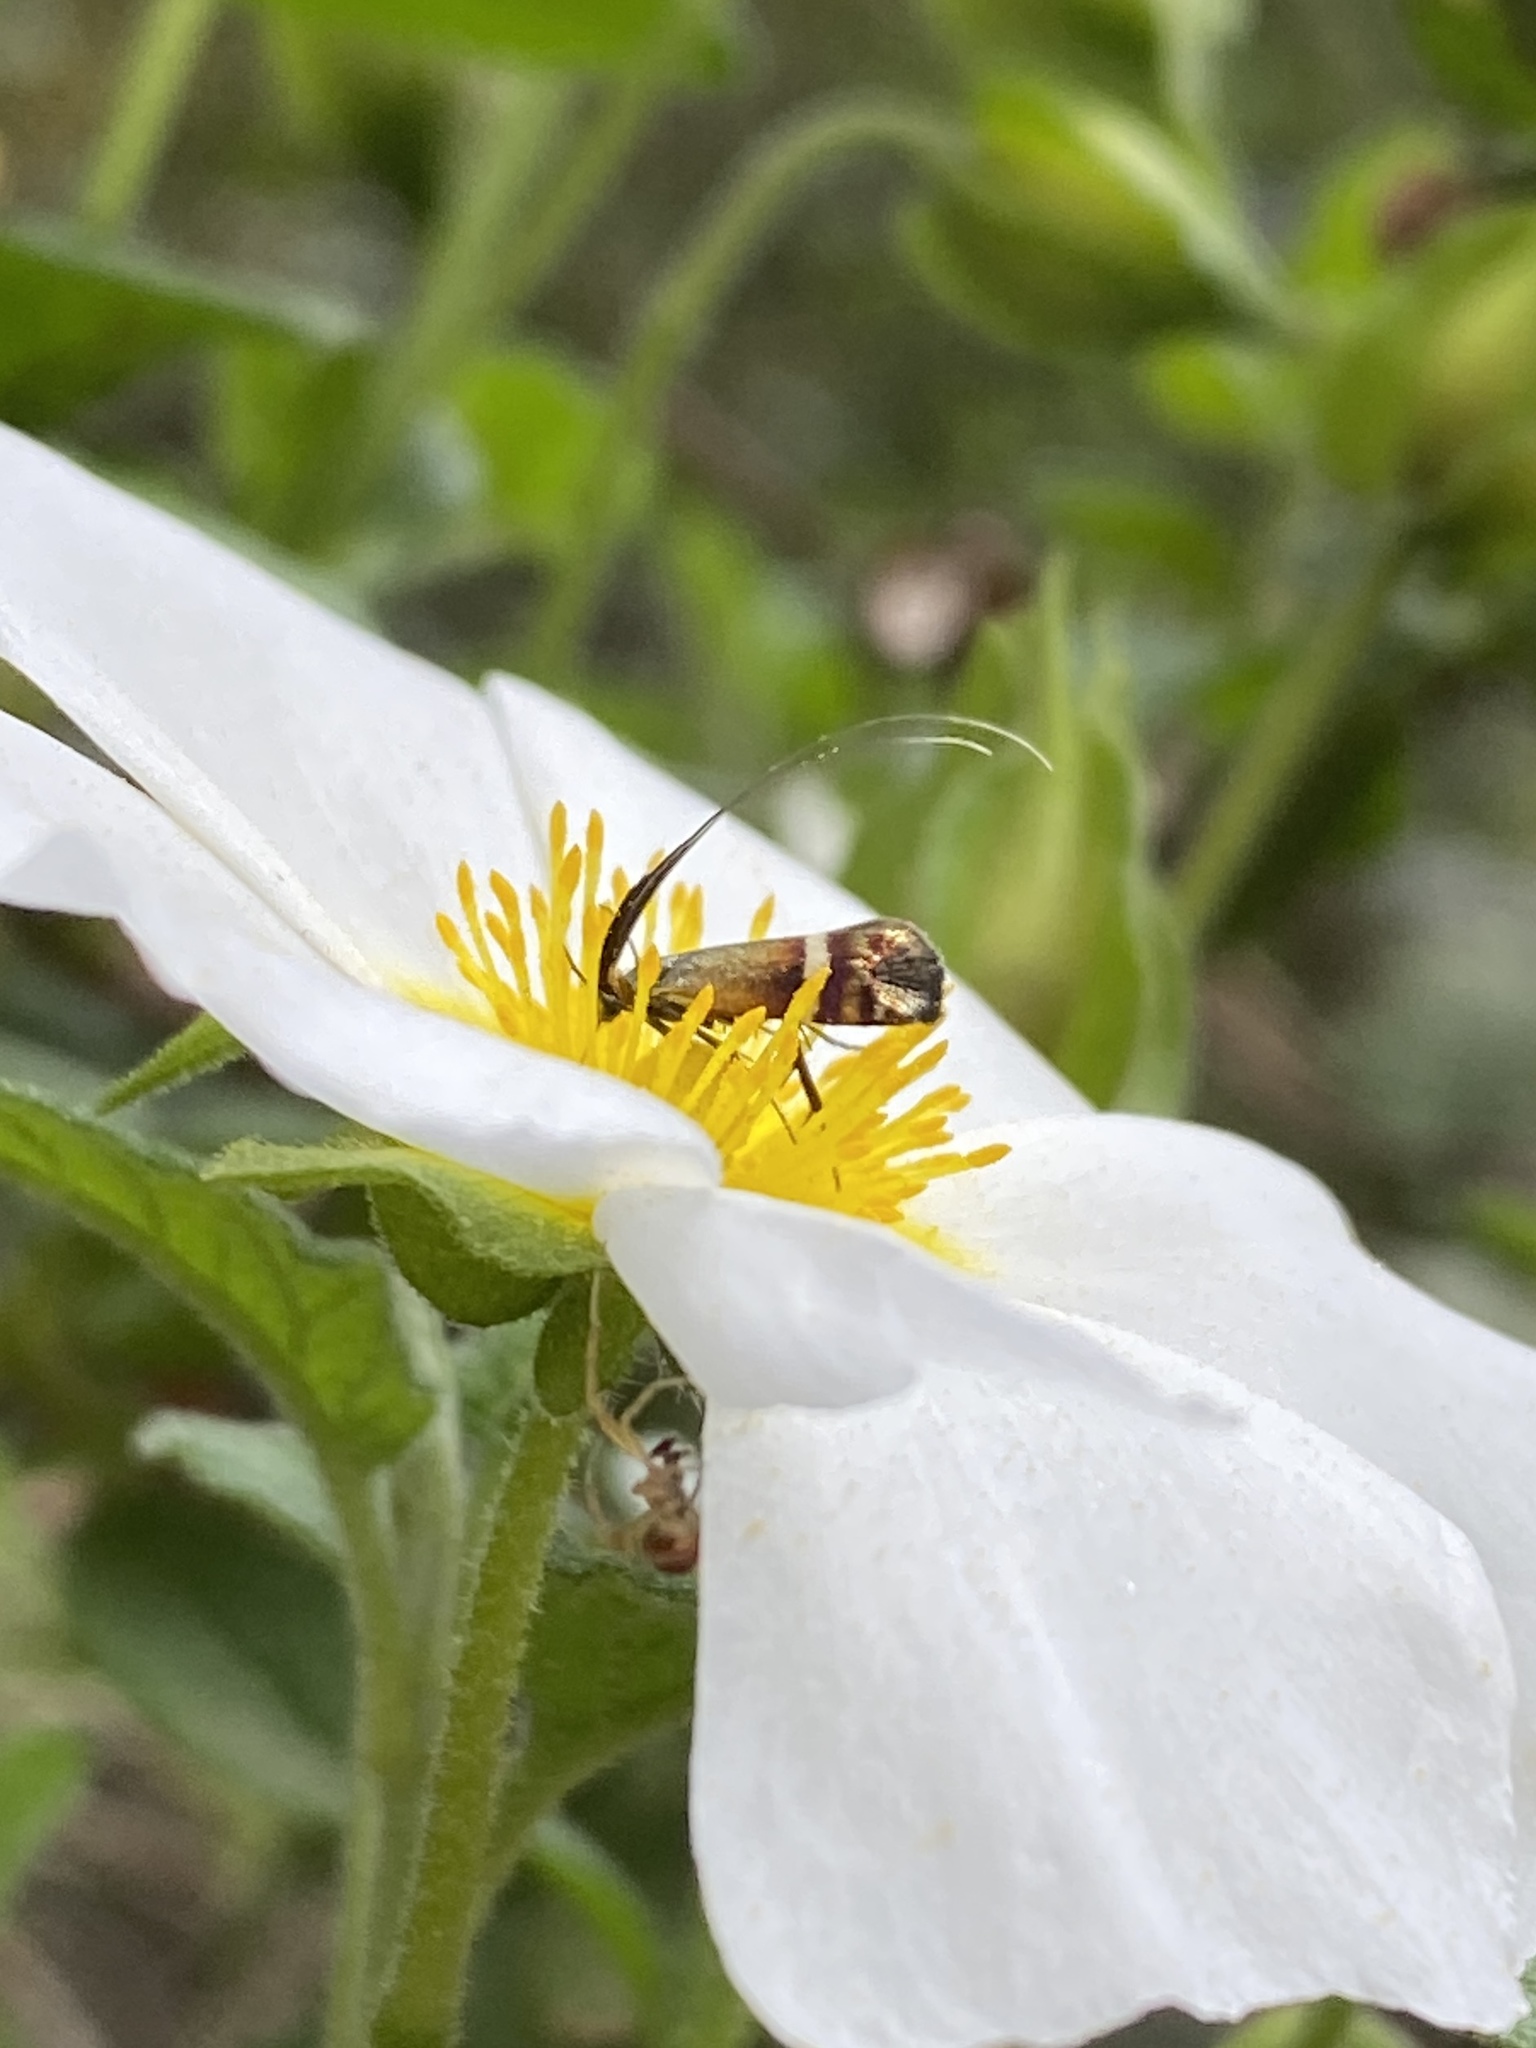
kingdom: Animalia
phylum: Arthropoda
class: Insecta
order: Lepidoptera
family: Adelidae
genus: Adela
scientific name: Adela australis
